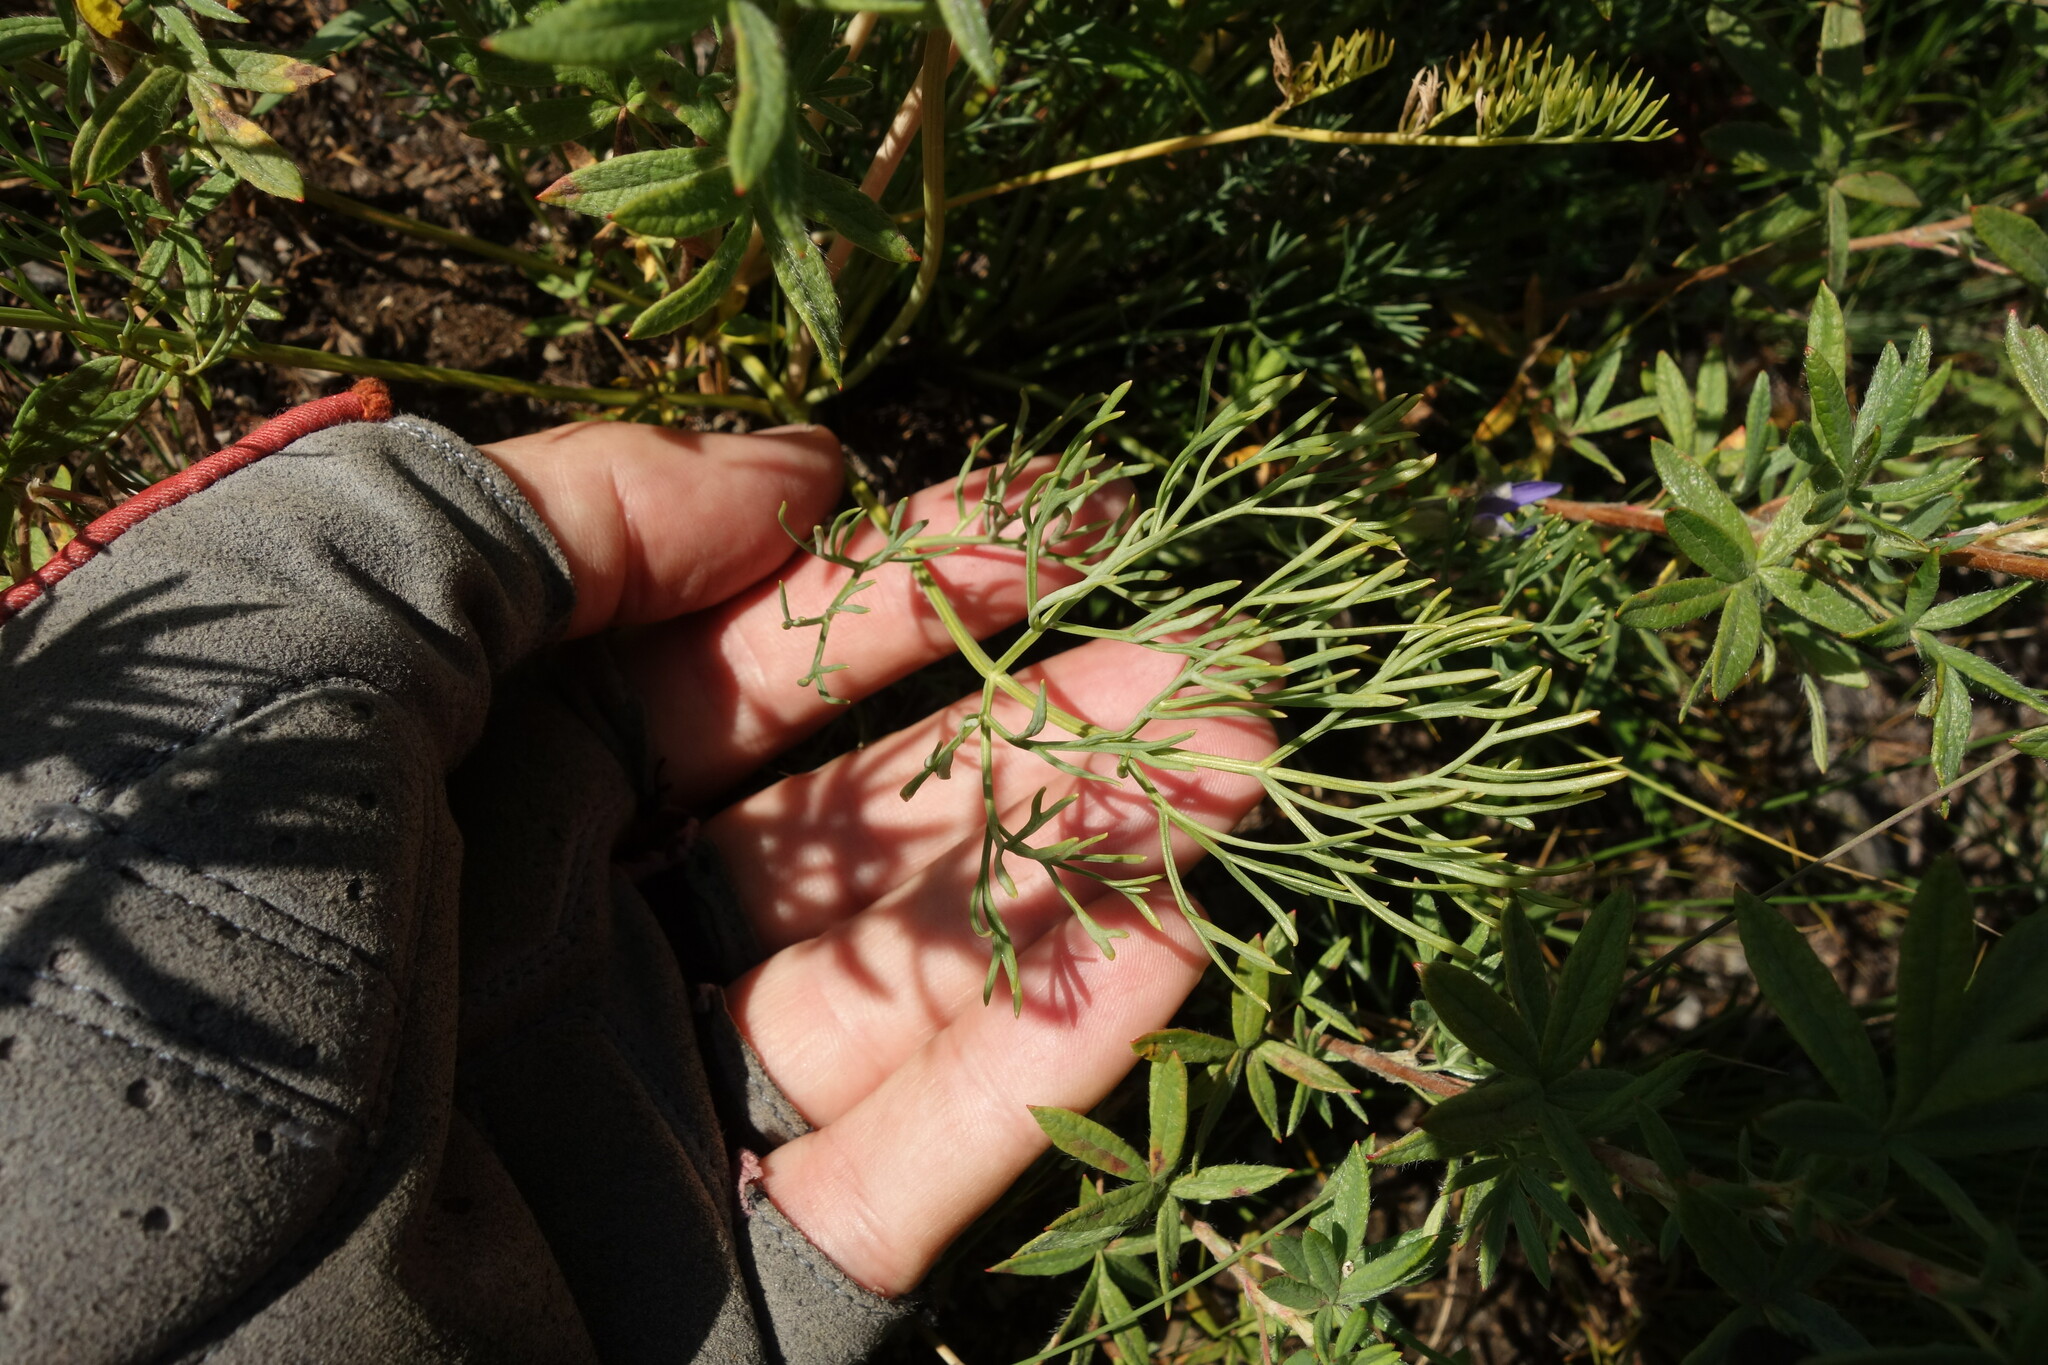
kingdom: Plantae
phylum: Tracheophyta
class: Magnoliopsida
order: Apiales
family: Apiaceae
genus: Phlojodicarpus
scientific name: Phlojodicarpus sibiricus
